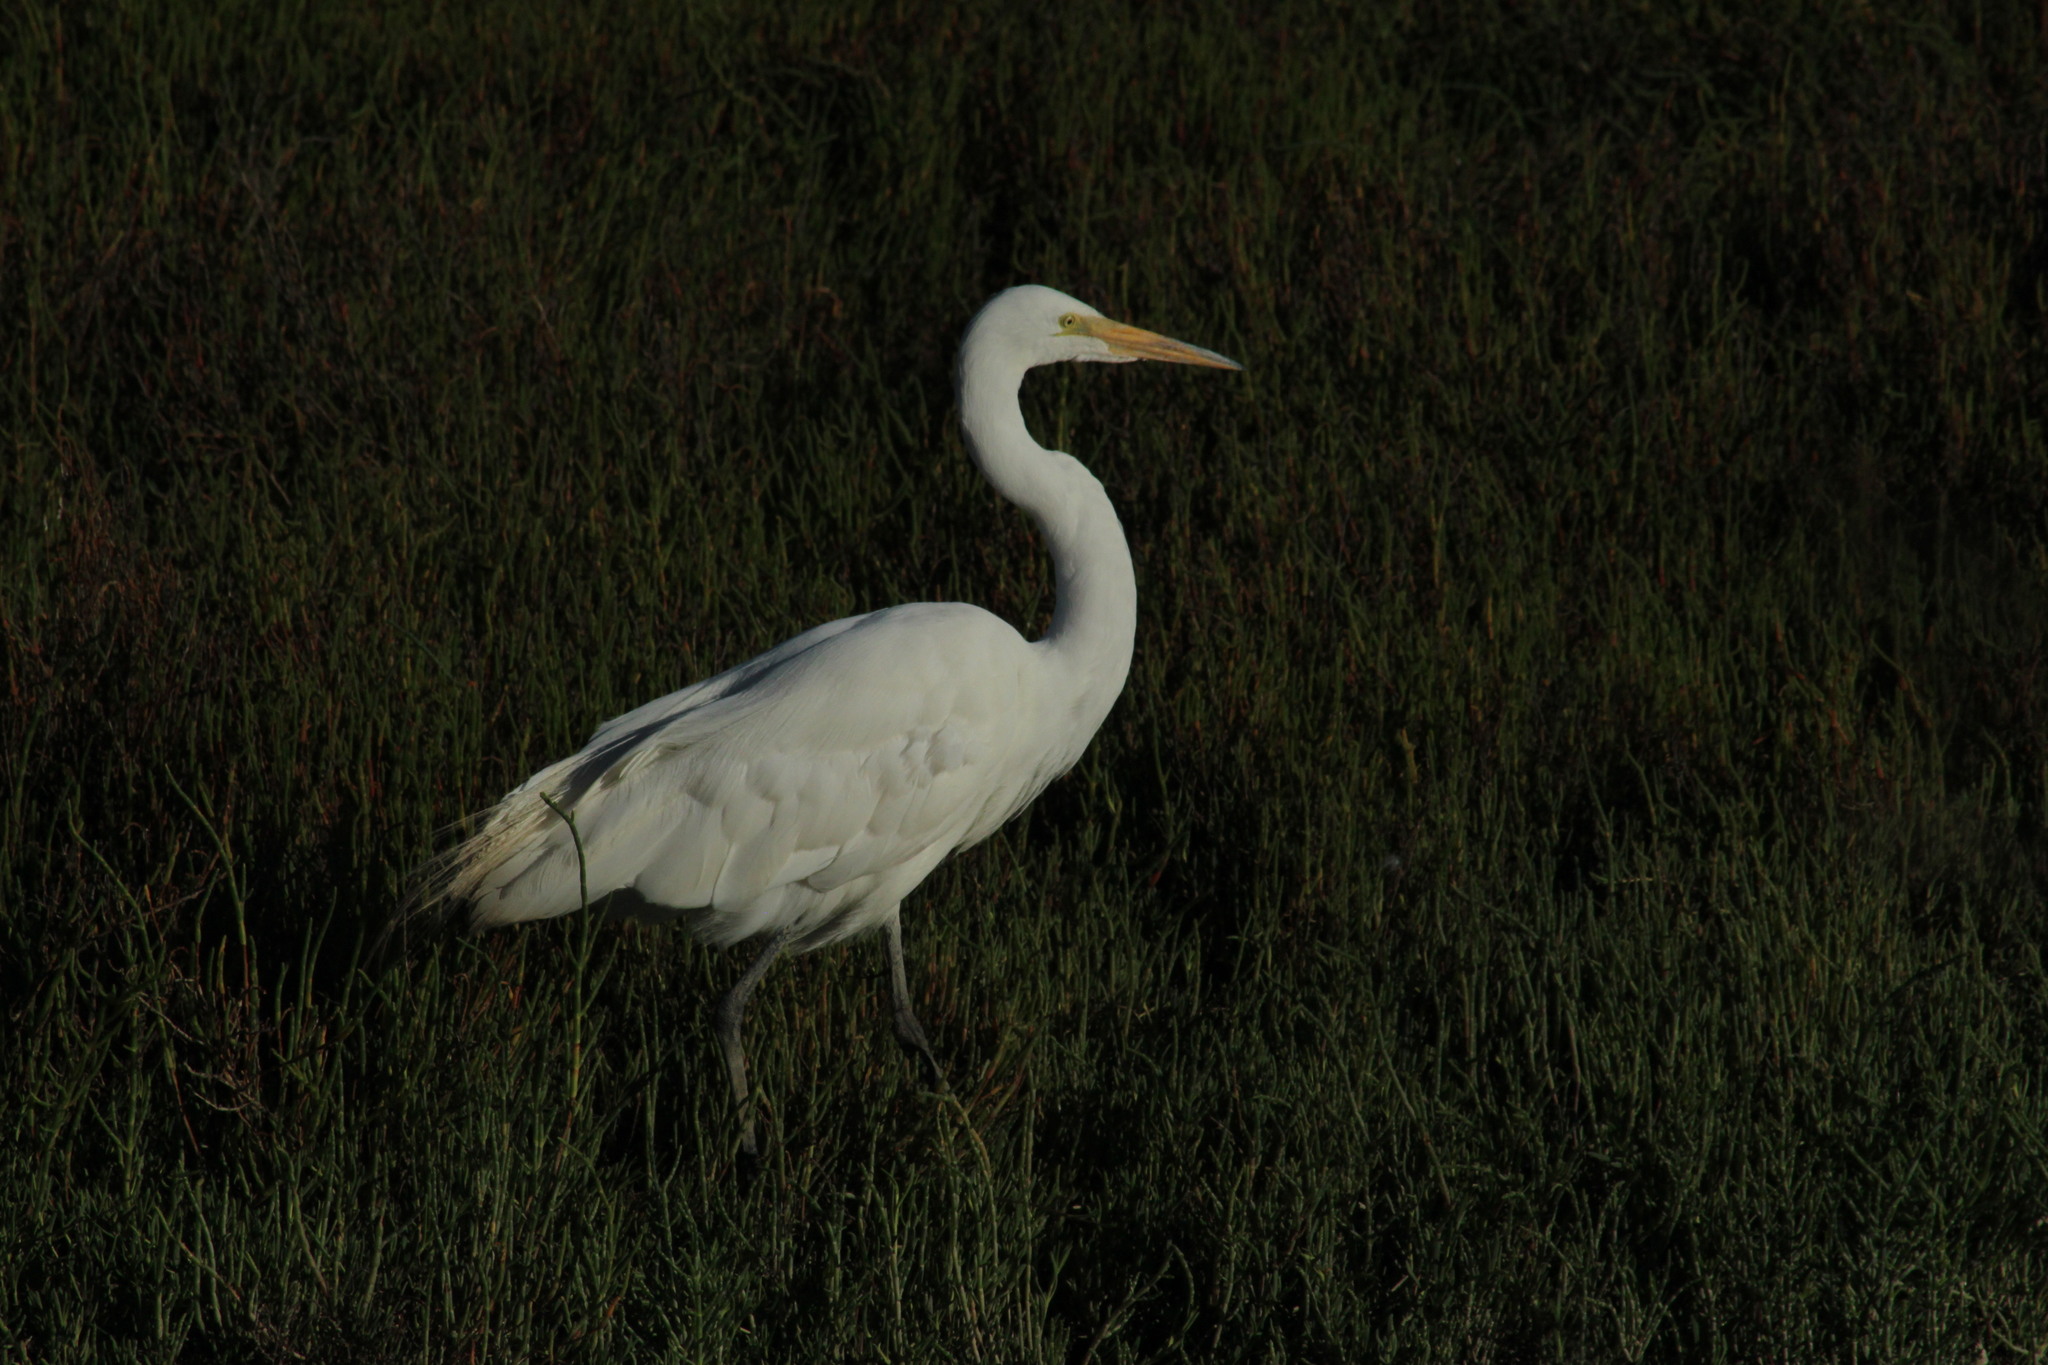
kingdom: Animalia
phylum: Chordata
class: Aves
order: Pelecaniformes
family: Ardeidae
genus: Ardea
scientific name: Ardea alba
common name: Great egret
